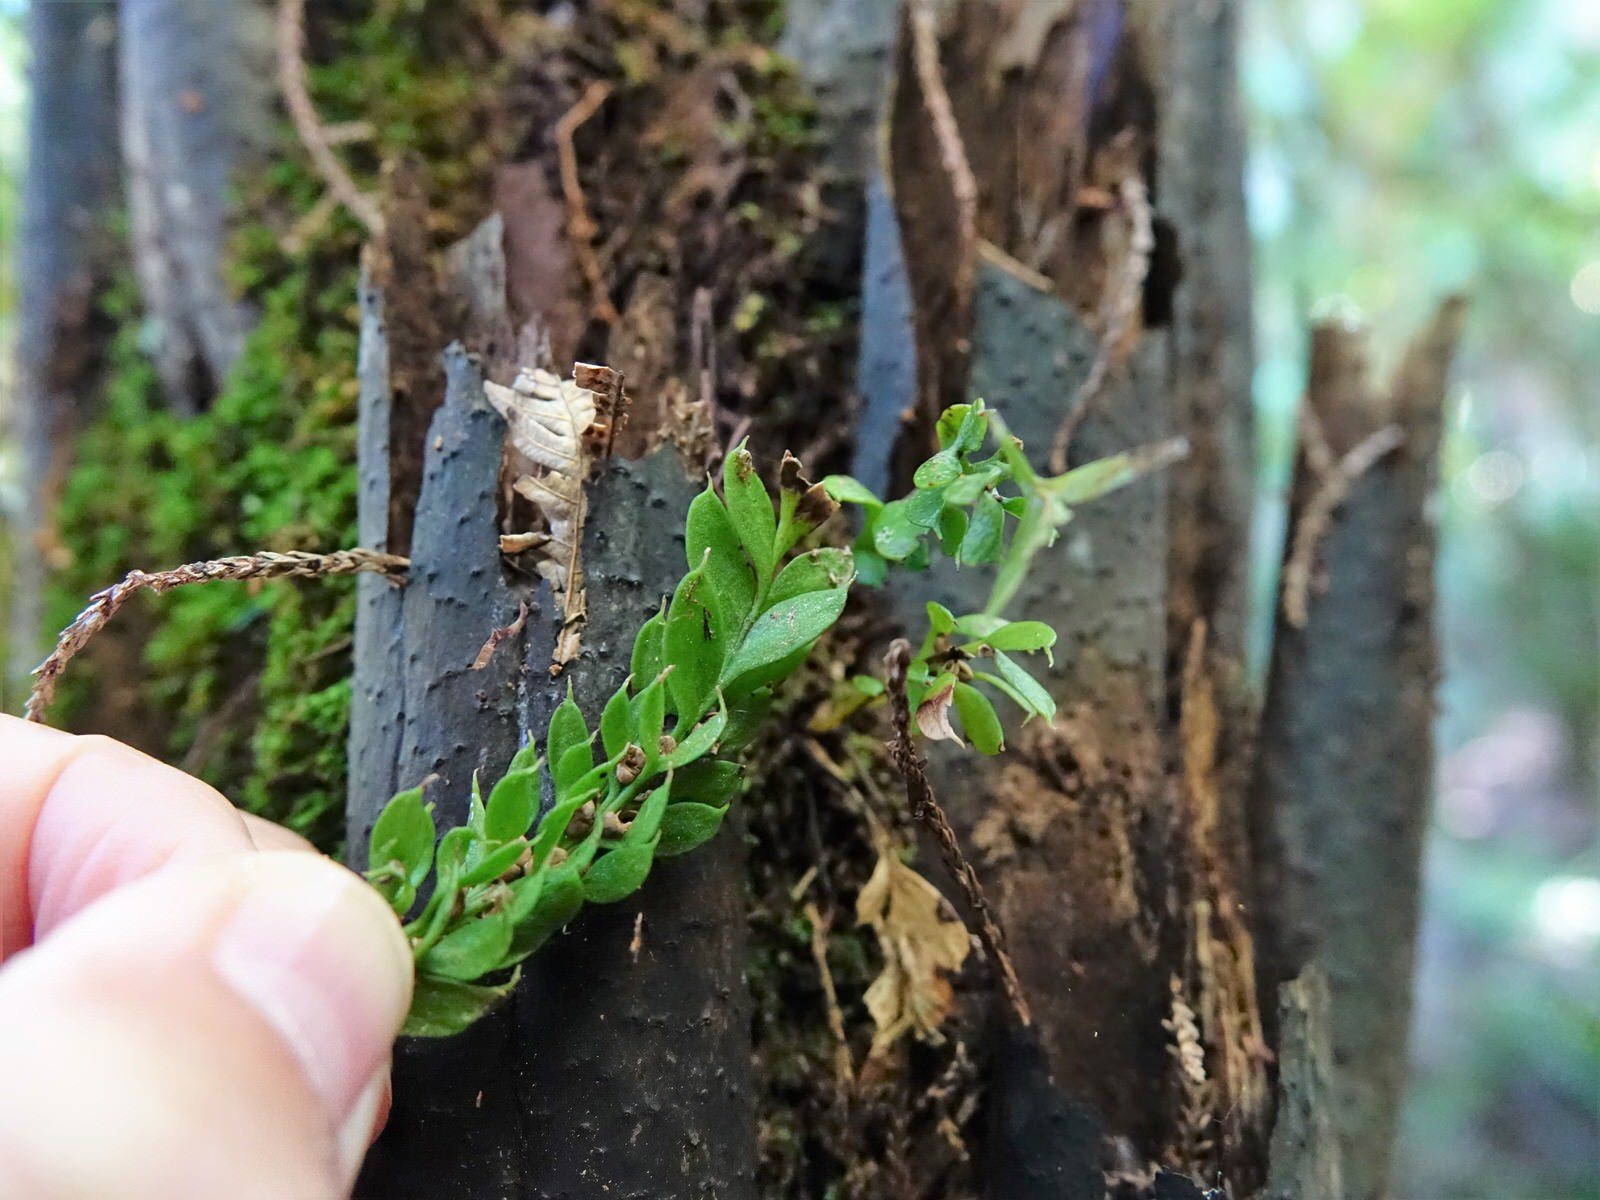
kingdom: Plantae
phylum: Tracheophyta
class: Polypodiopsida
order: Psilotales
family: Psilotaceae
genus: Tmesipteris
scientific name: Tmesipteris lanceolata
